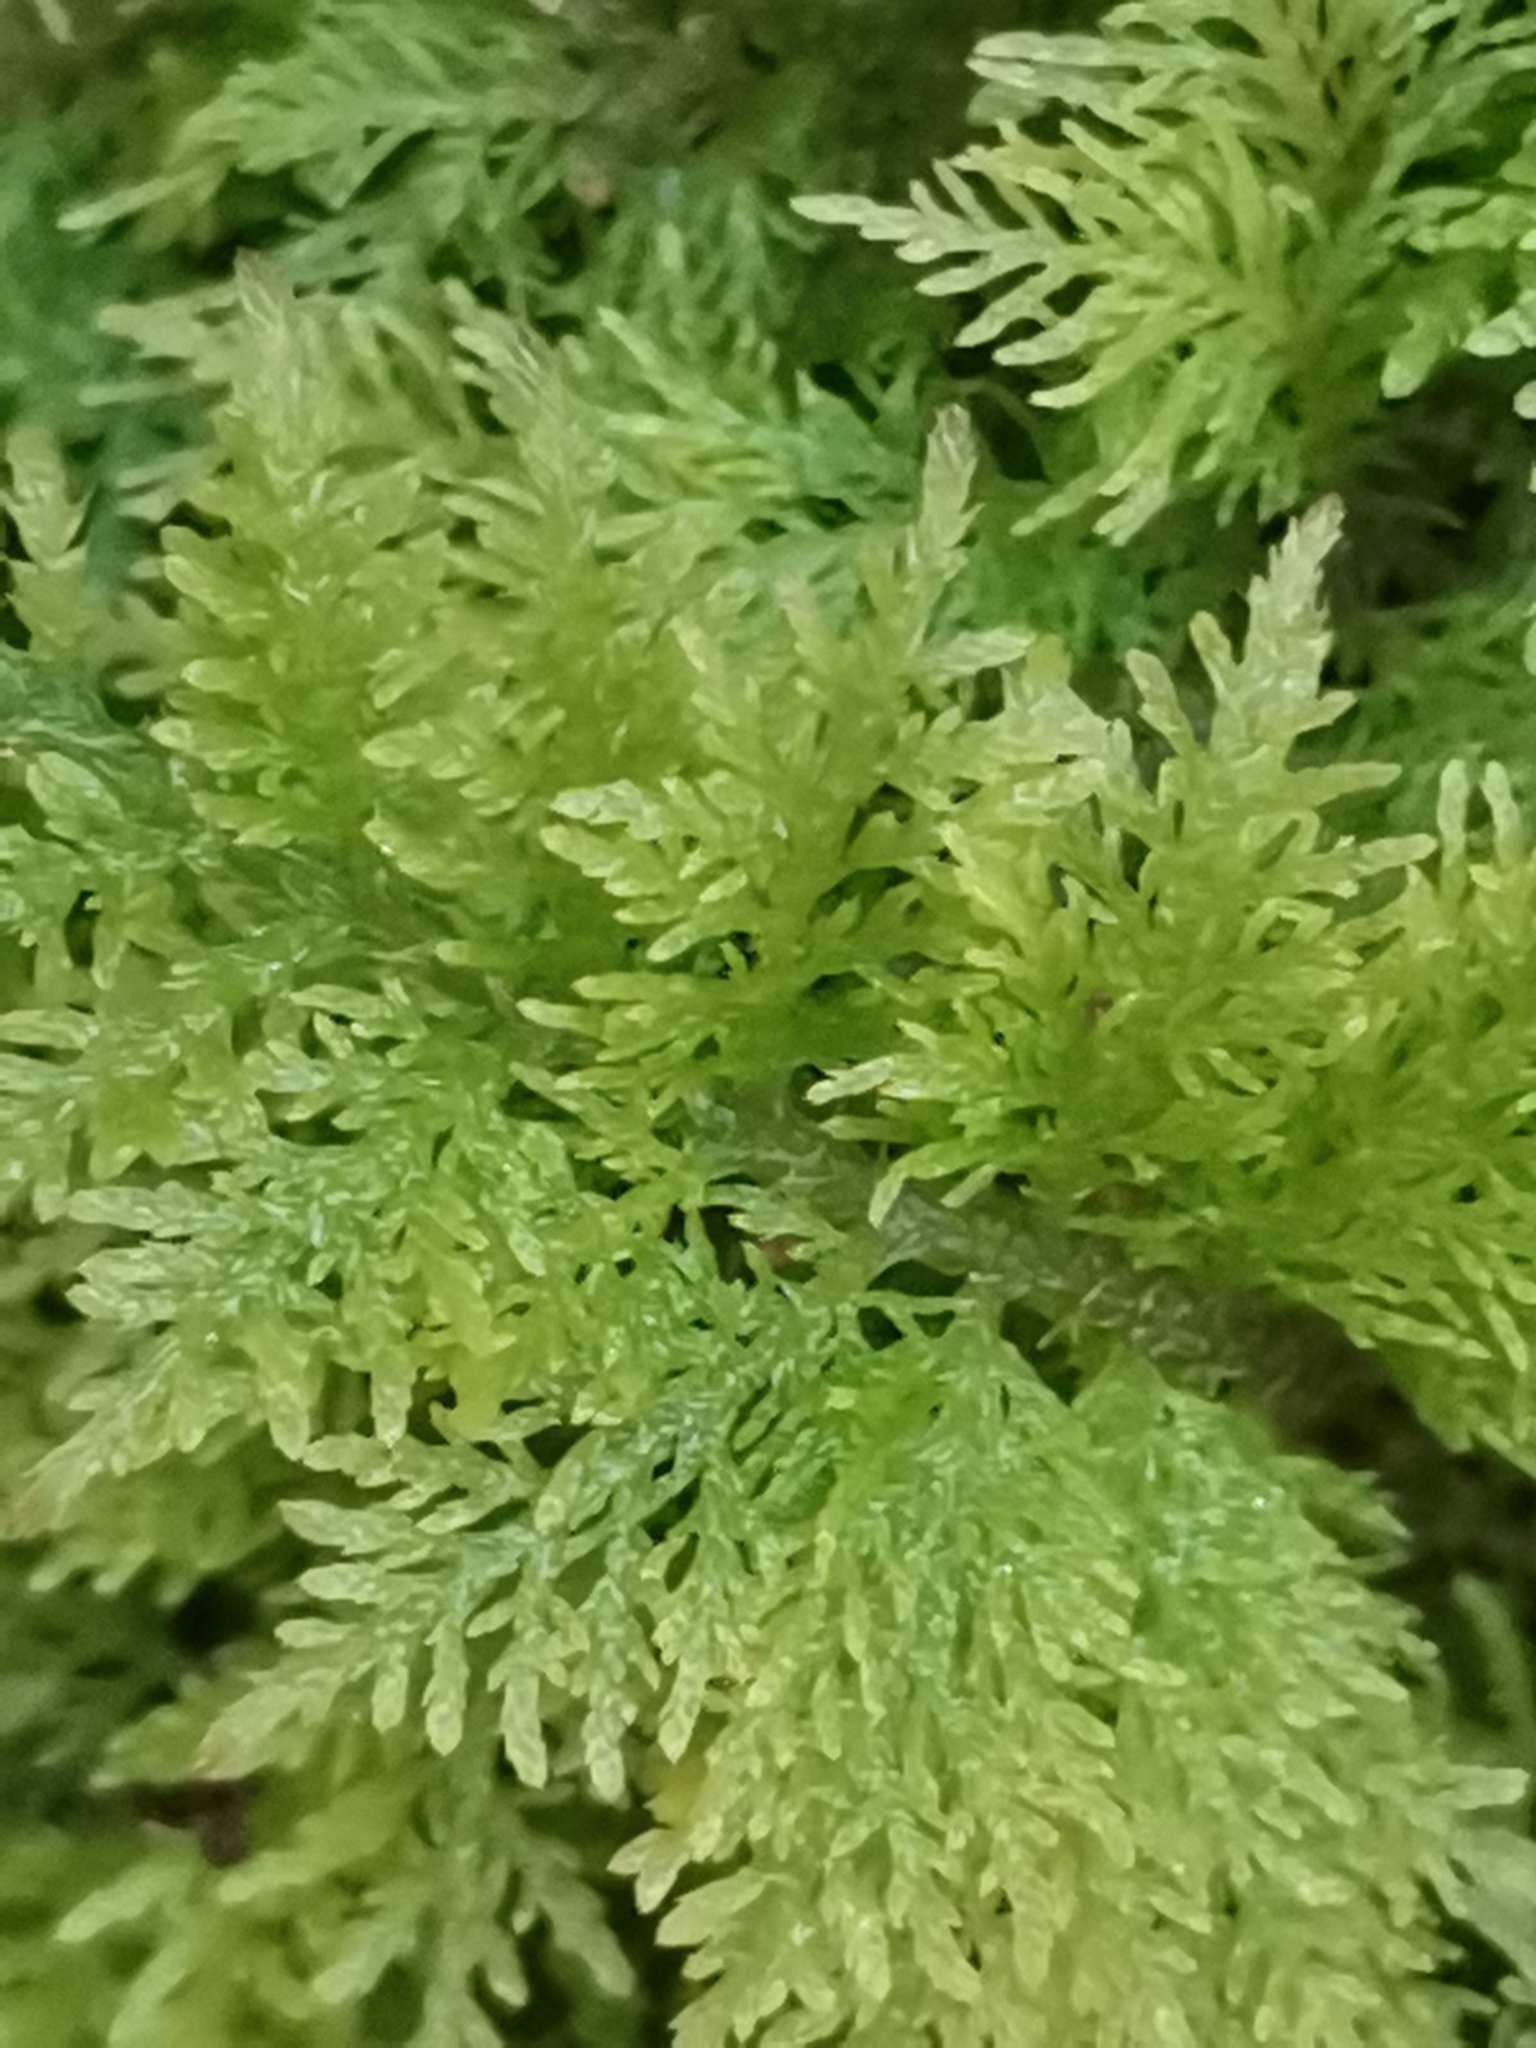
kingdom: Plantae
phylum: Bryophyta
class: Bryopsida
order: Hypnales
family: Thuidiaceae
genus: Thuidium
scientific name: Thuidium tamariscinum
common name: Common tamarisk-moss
